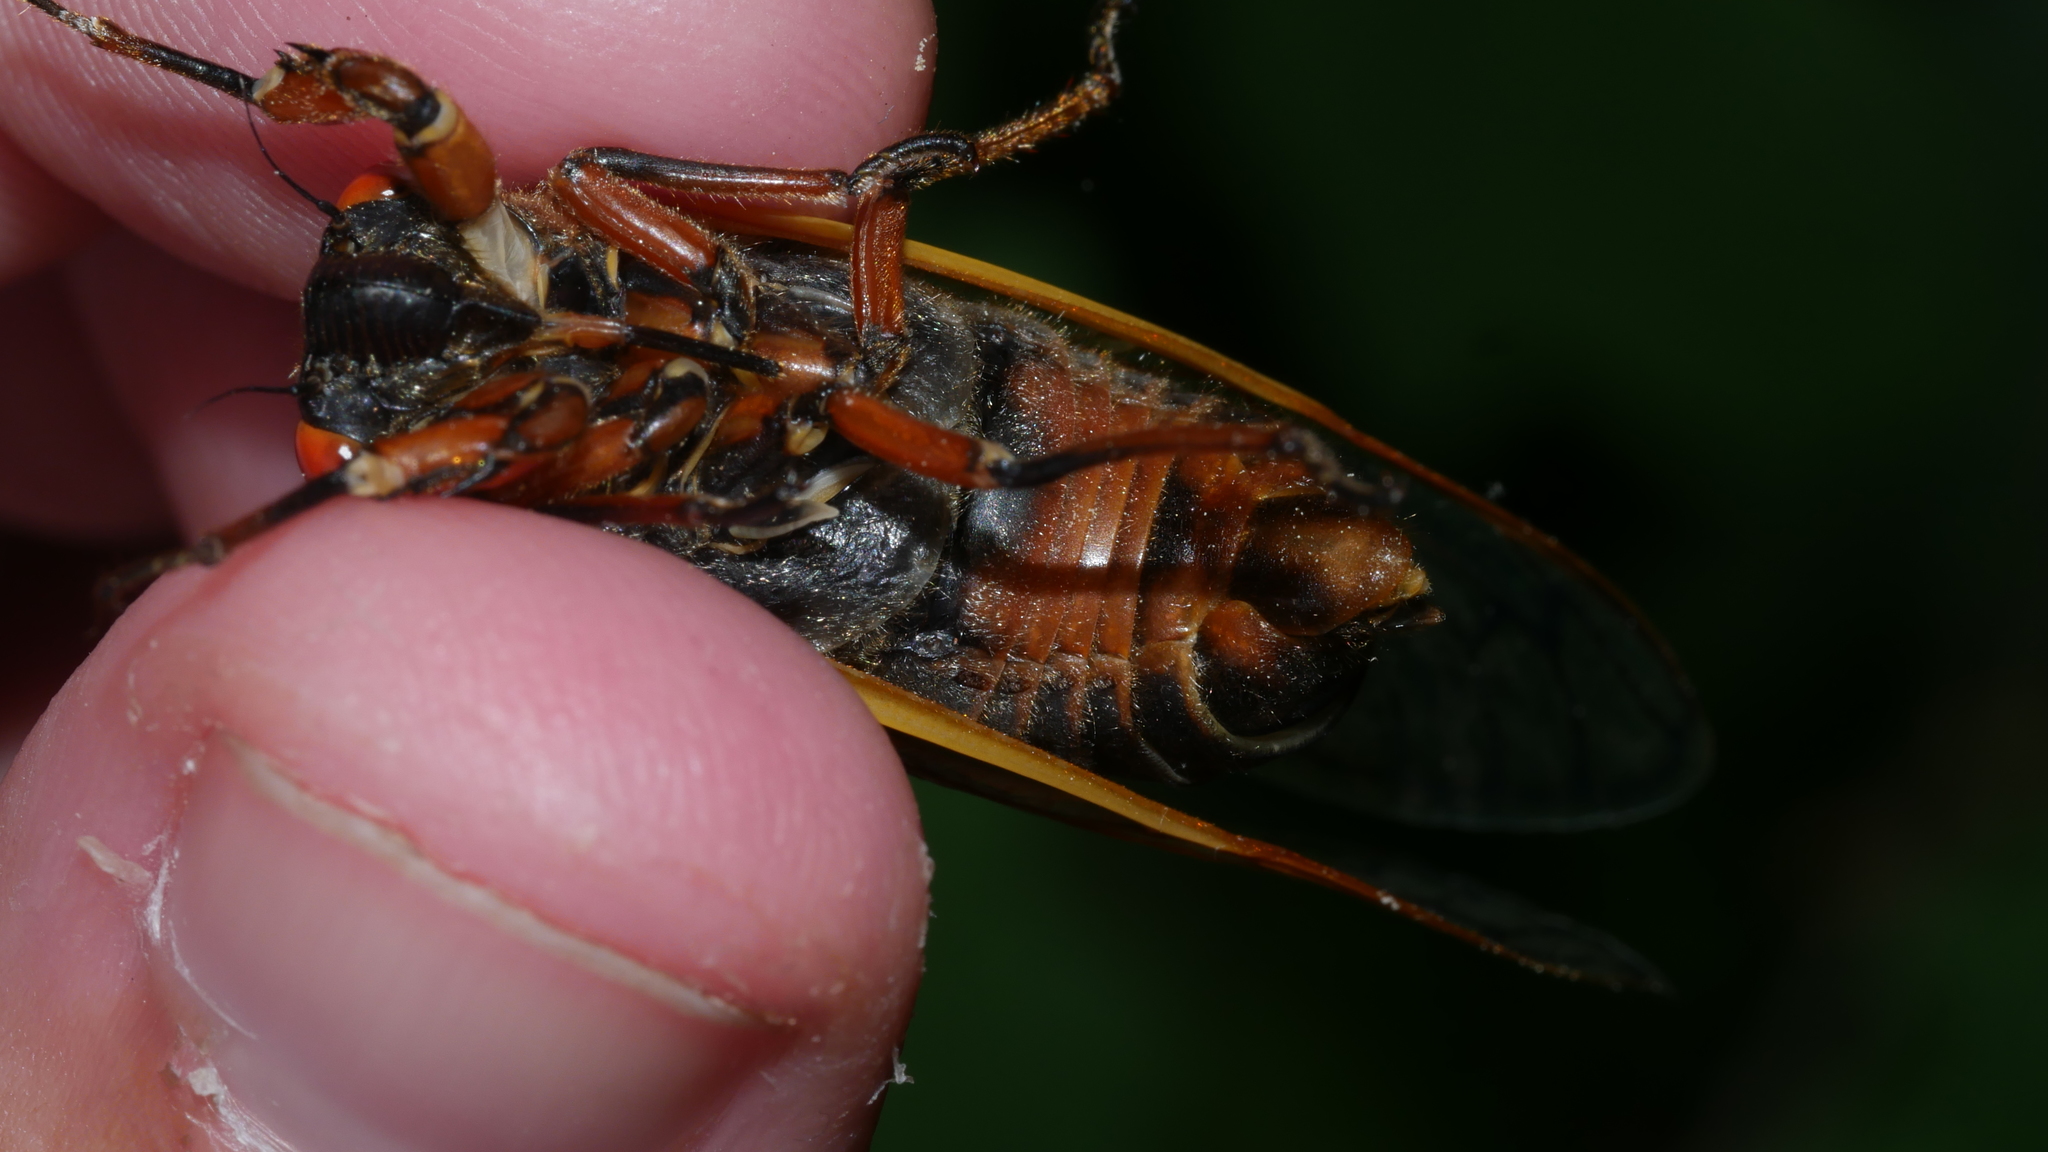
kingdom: Animalia
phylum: Arthropoda
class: Insecta
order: Hemiptera
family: Cicadidae
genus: Magicicada
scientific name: Magicicada septendecim
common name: Periodical cicada
